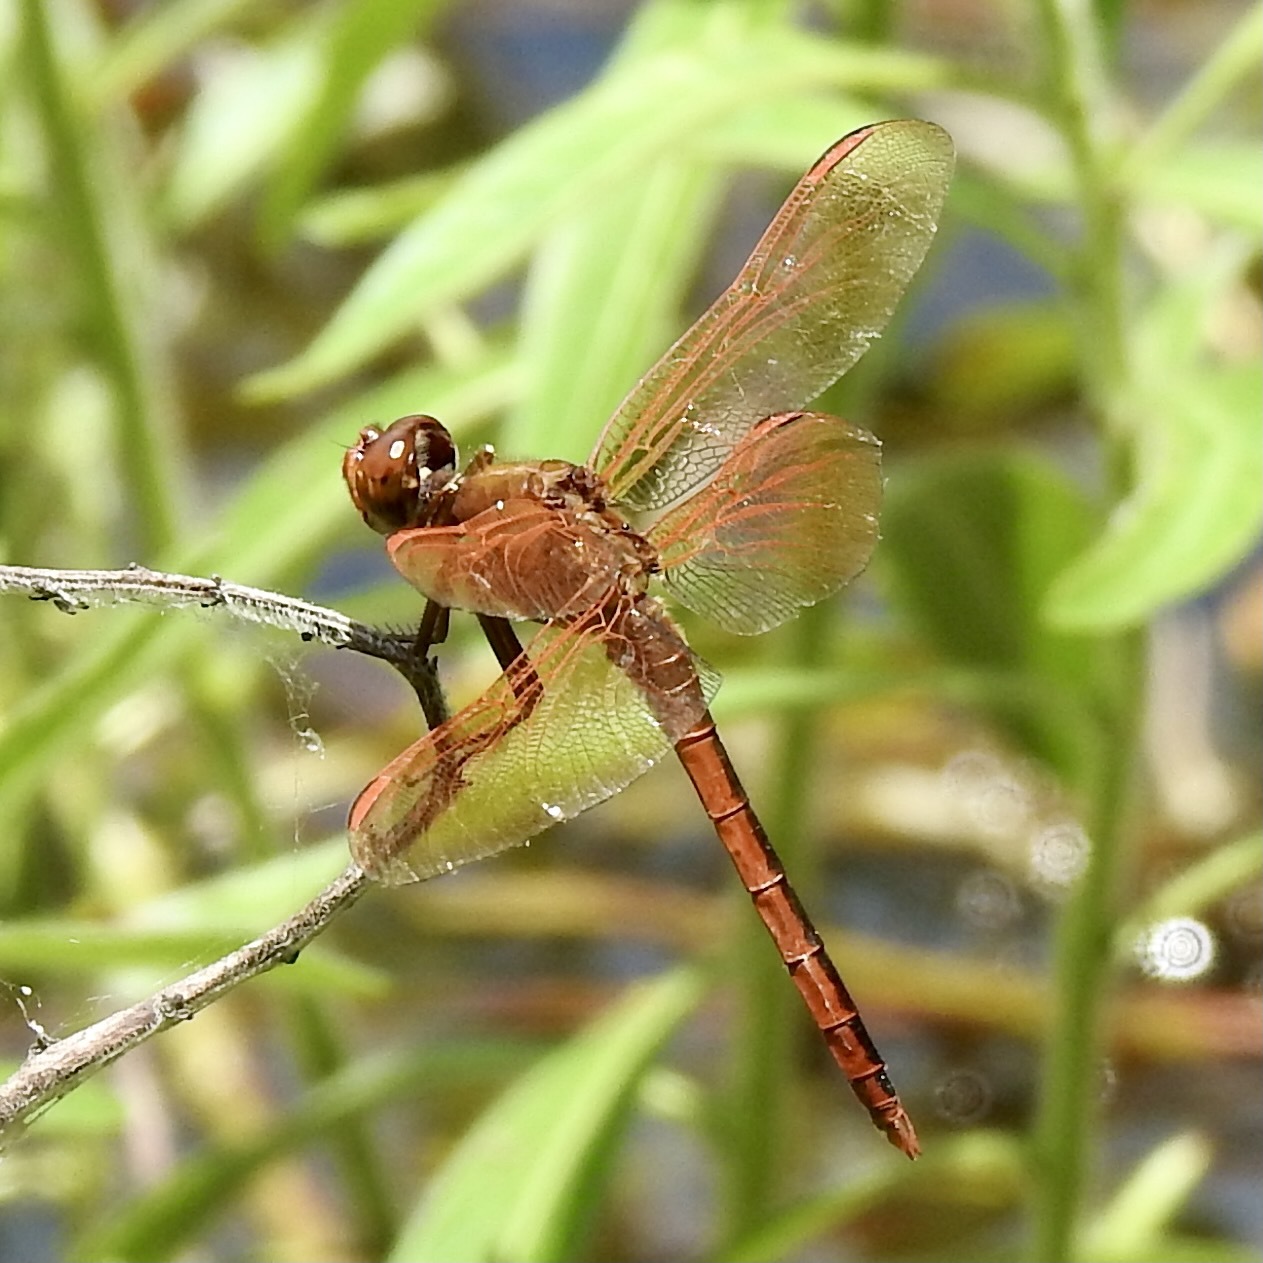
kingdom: Animalia
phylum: Arthropoda
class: Insecta
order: Odonata
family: Libellulidae
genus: Libellula
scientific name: Libellula auripennis
